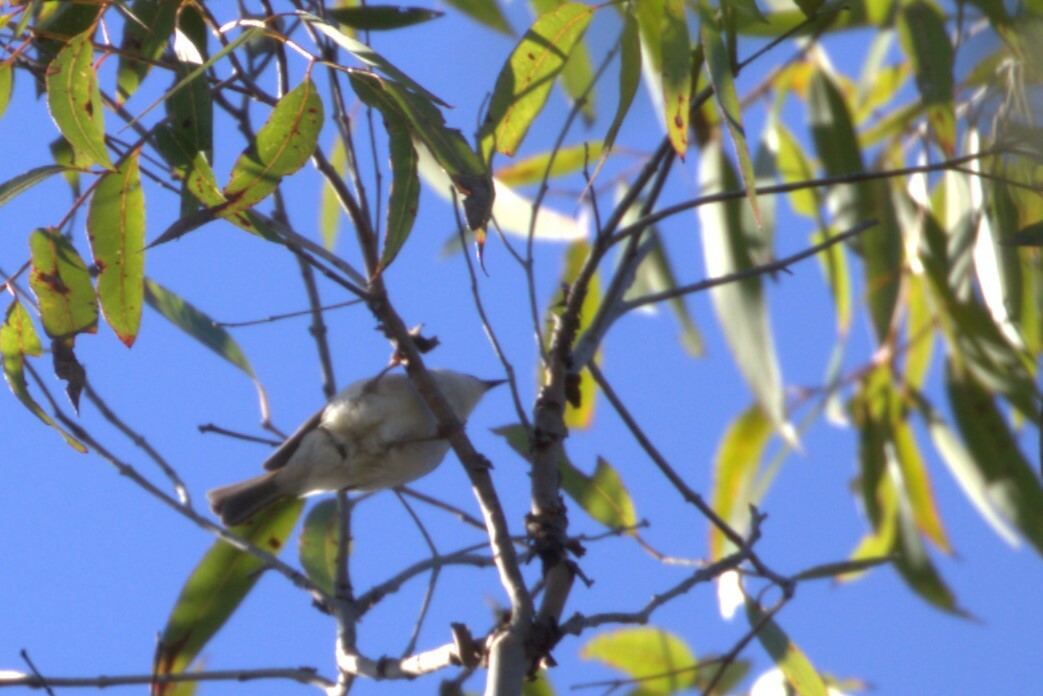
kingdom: Animalia
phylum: Chordata
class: Aves
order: Passeriformes
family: Meliphagidae
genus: Melithreptus
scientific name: Melithreptus albogularis
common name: White-throated honeyeater
